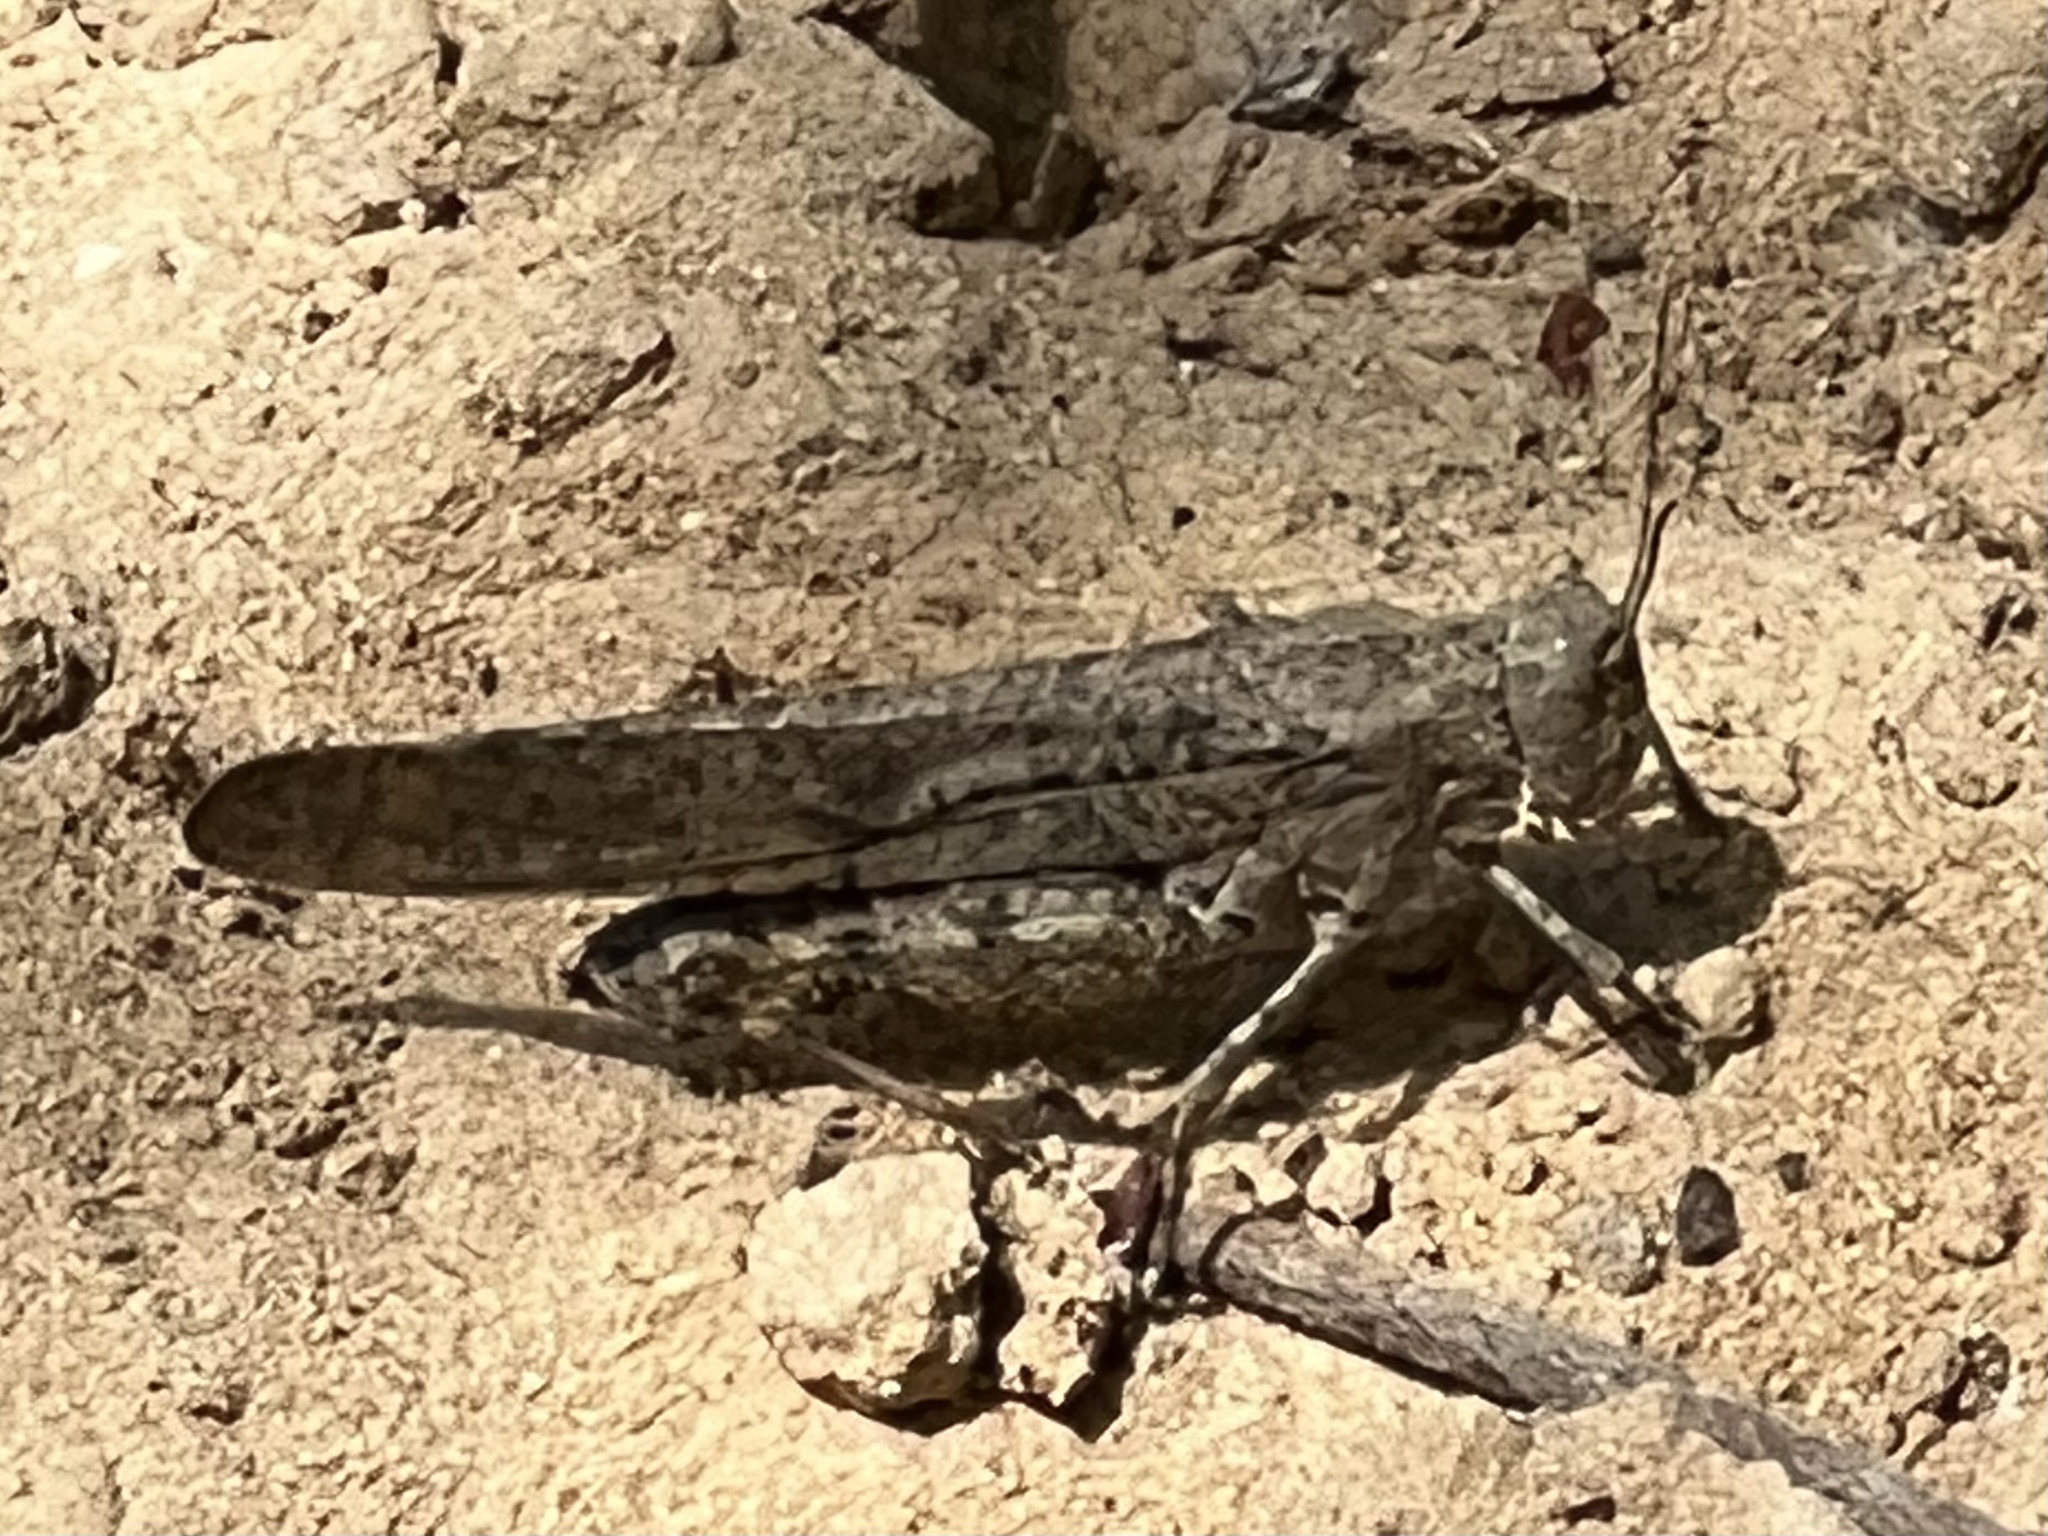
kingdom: Animalia
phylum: Arthropoda
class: Insecta
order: Orthoptera
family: Acrididae
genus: Dissosteira
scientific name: Dissosteira carolina
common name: Carolina grasshopper
